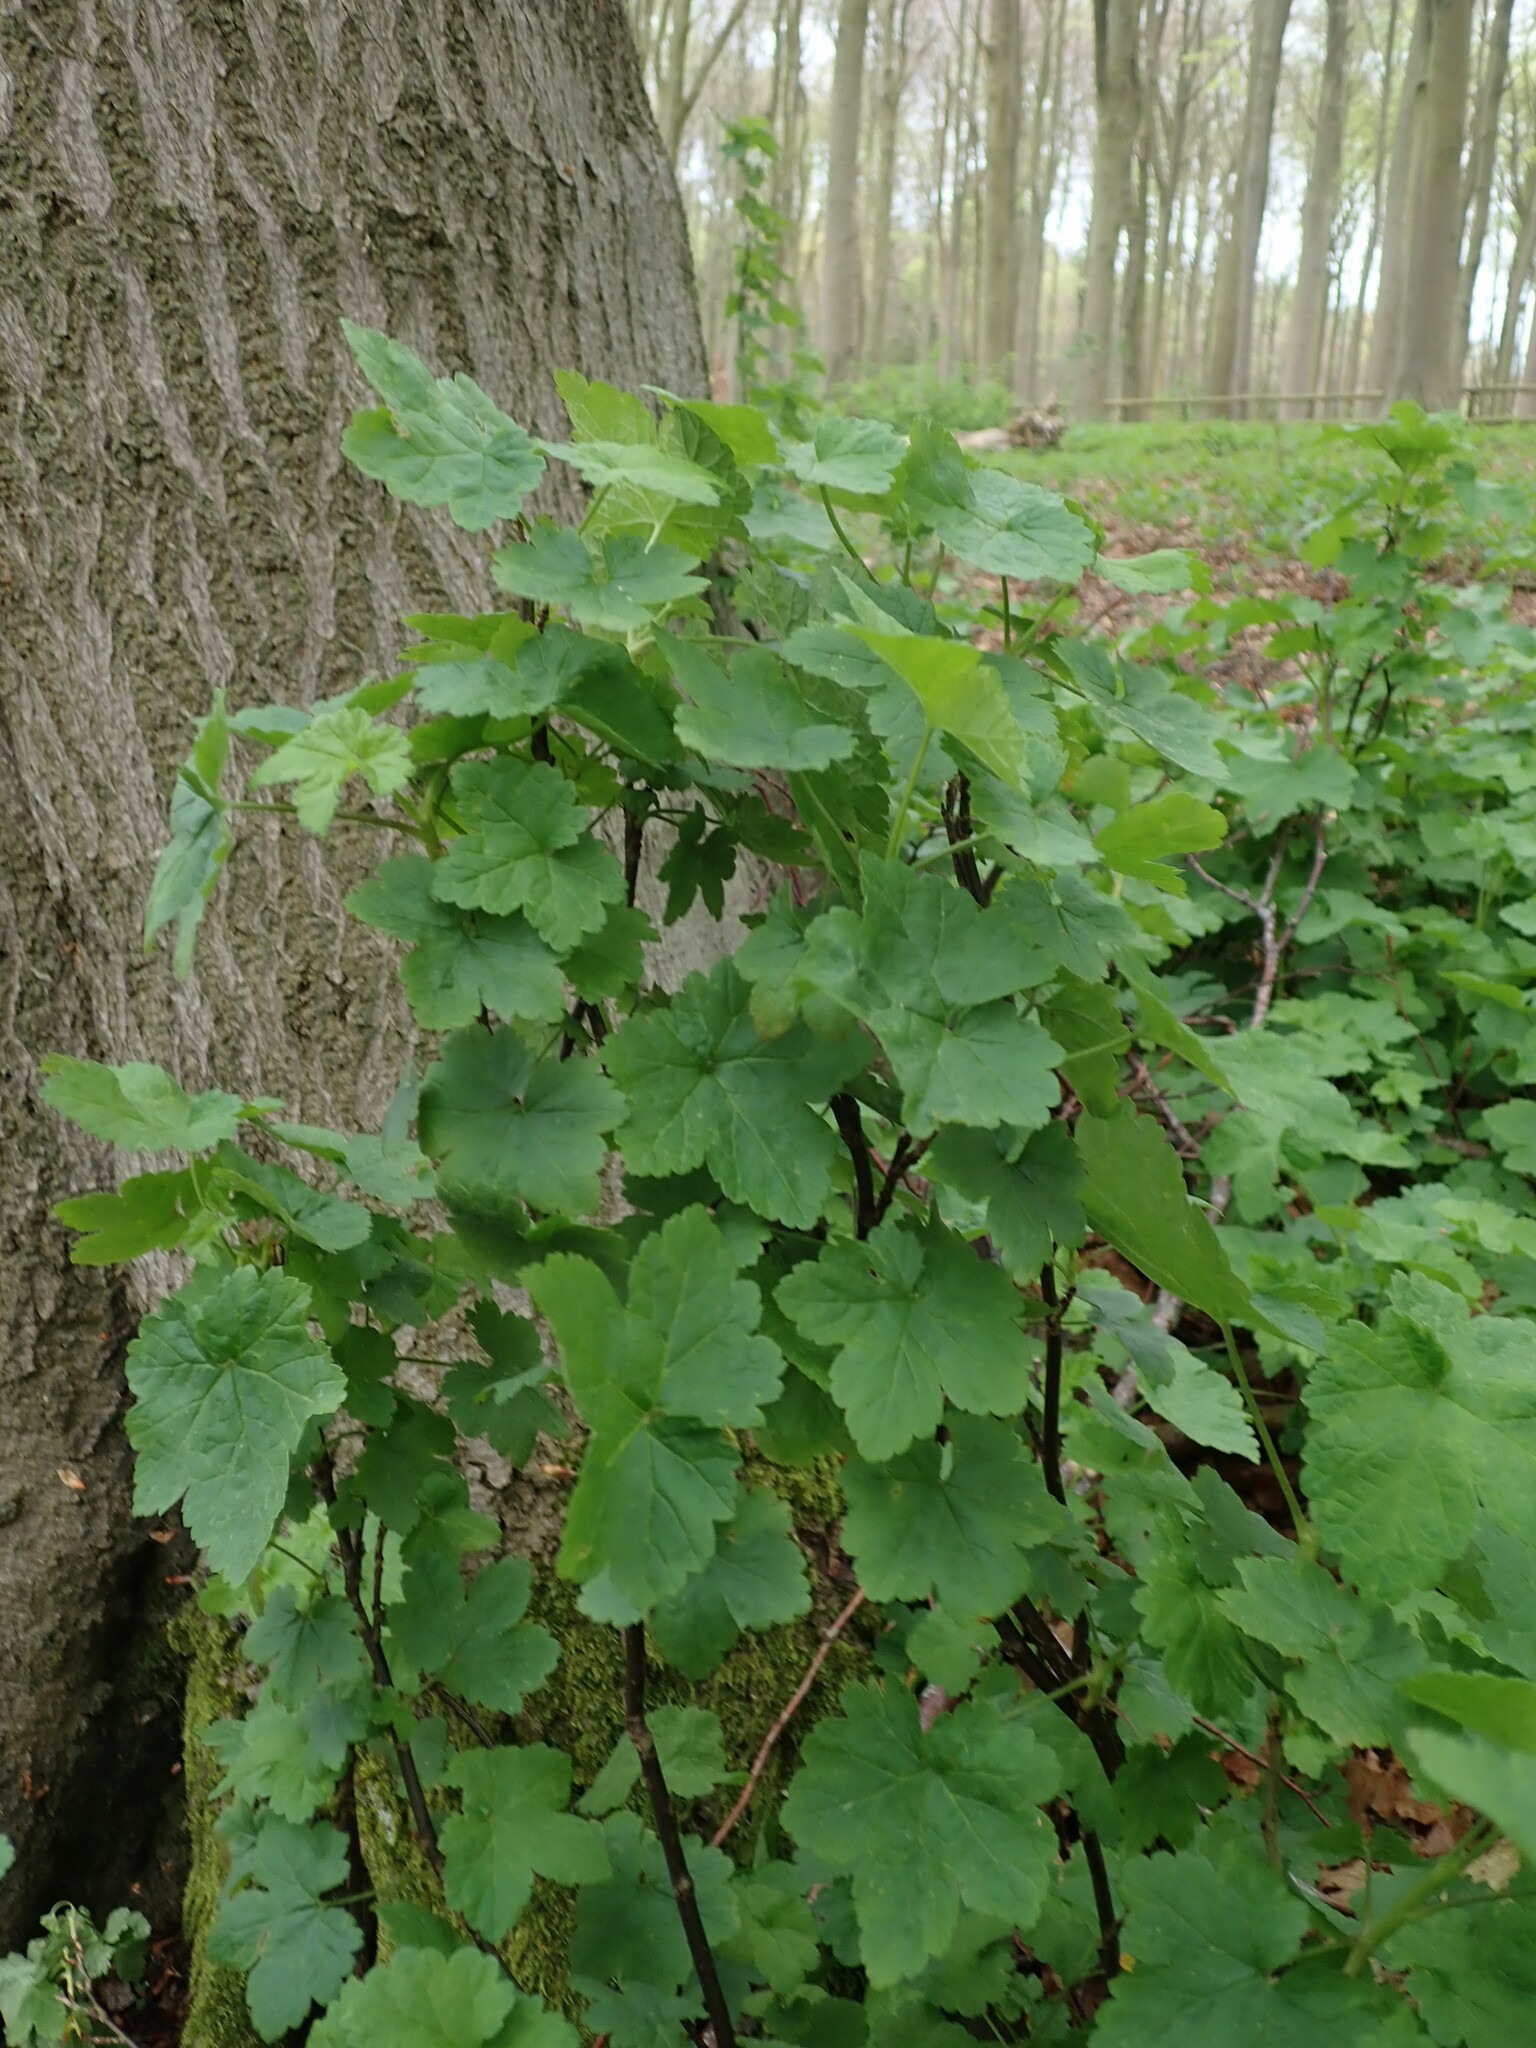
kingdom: Plantae
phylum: Tracheophyta
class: Magnoliopsida
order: Saxifragales
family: Grossulariaceae
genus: Ribes
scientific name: Ribes rubrum
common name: Red currant
